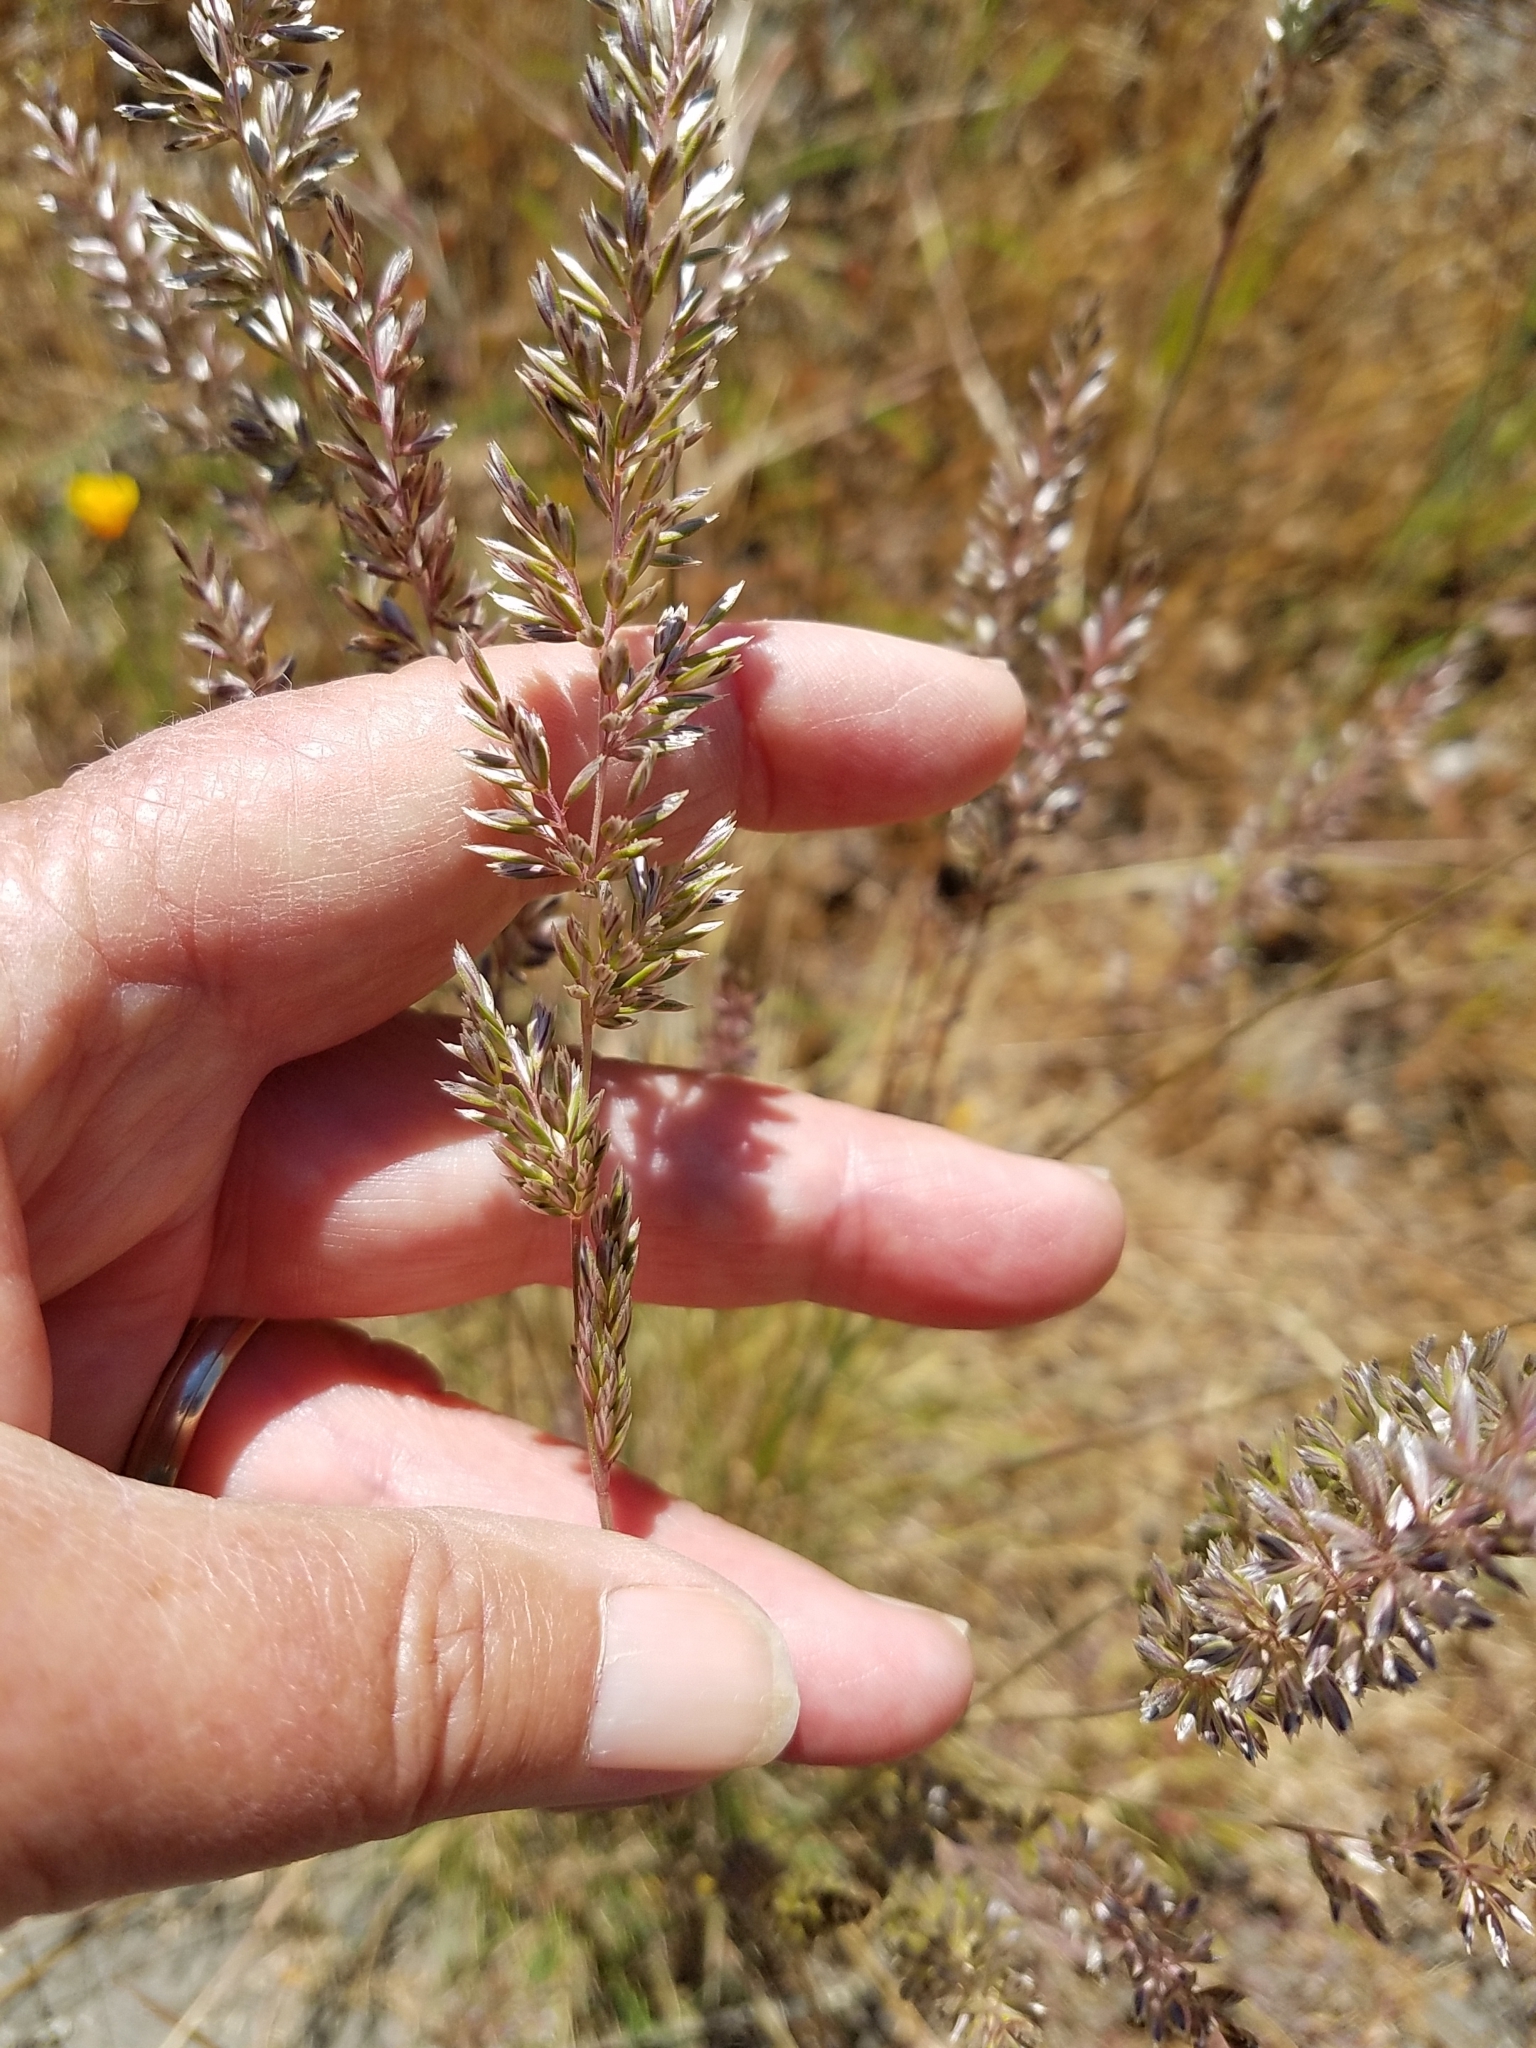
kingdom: Plantae
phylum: Tracheophyta
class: Liliopsida
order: Poales
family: Poaceae
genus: Koeleria
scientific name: Koeleria macrantha
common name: Crested hair-grass
